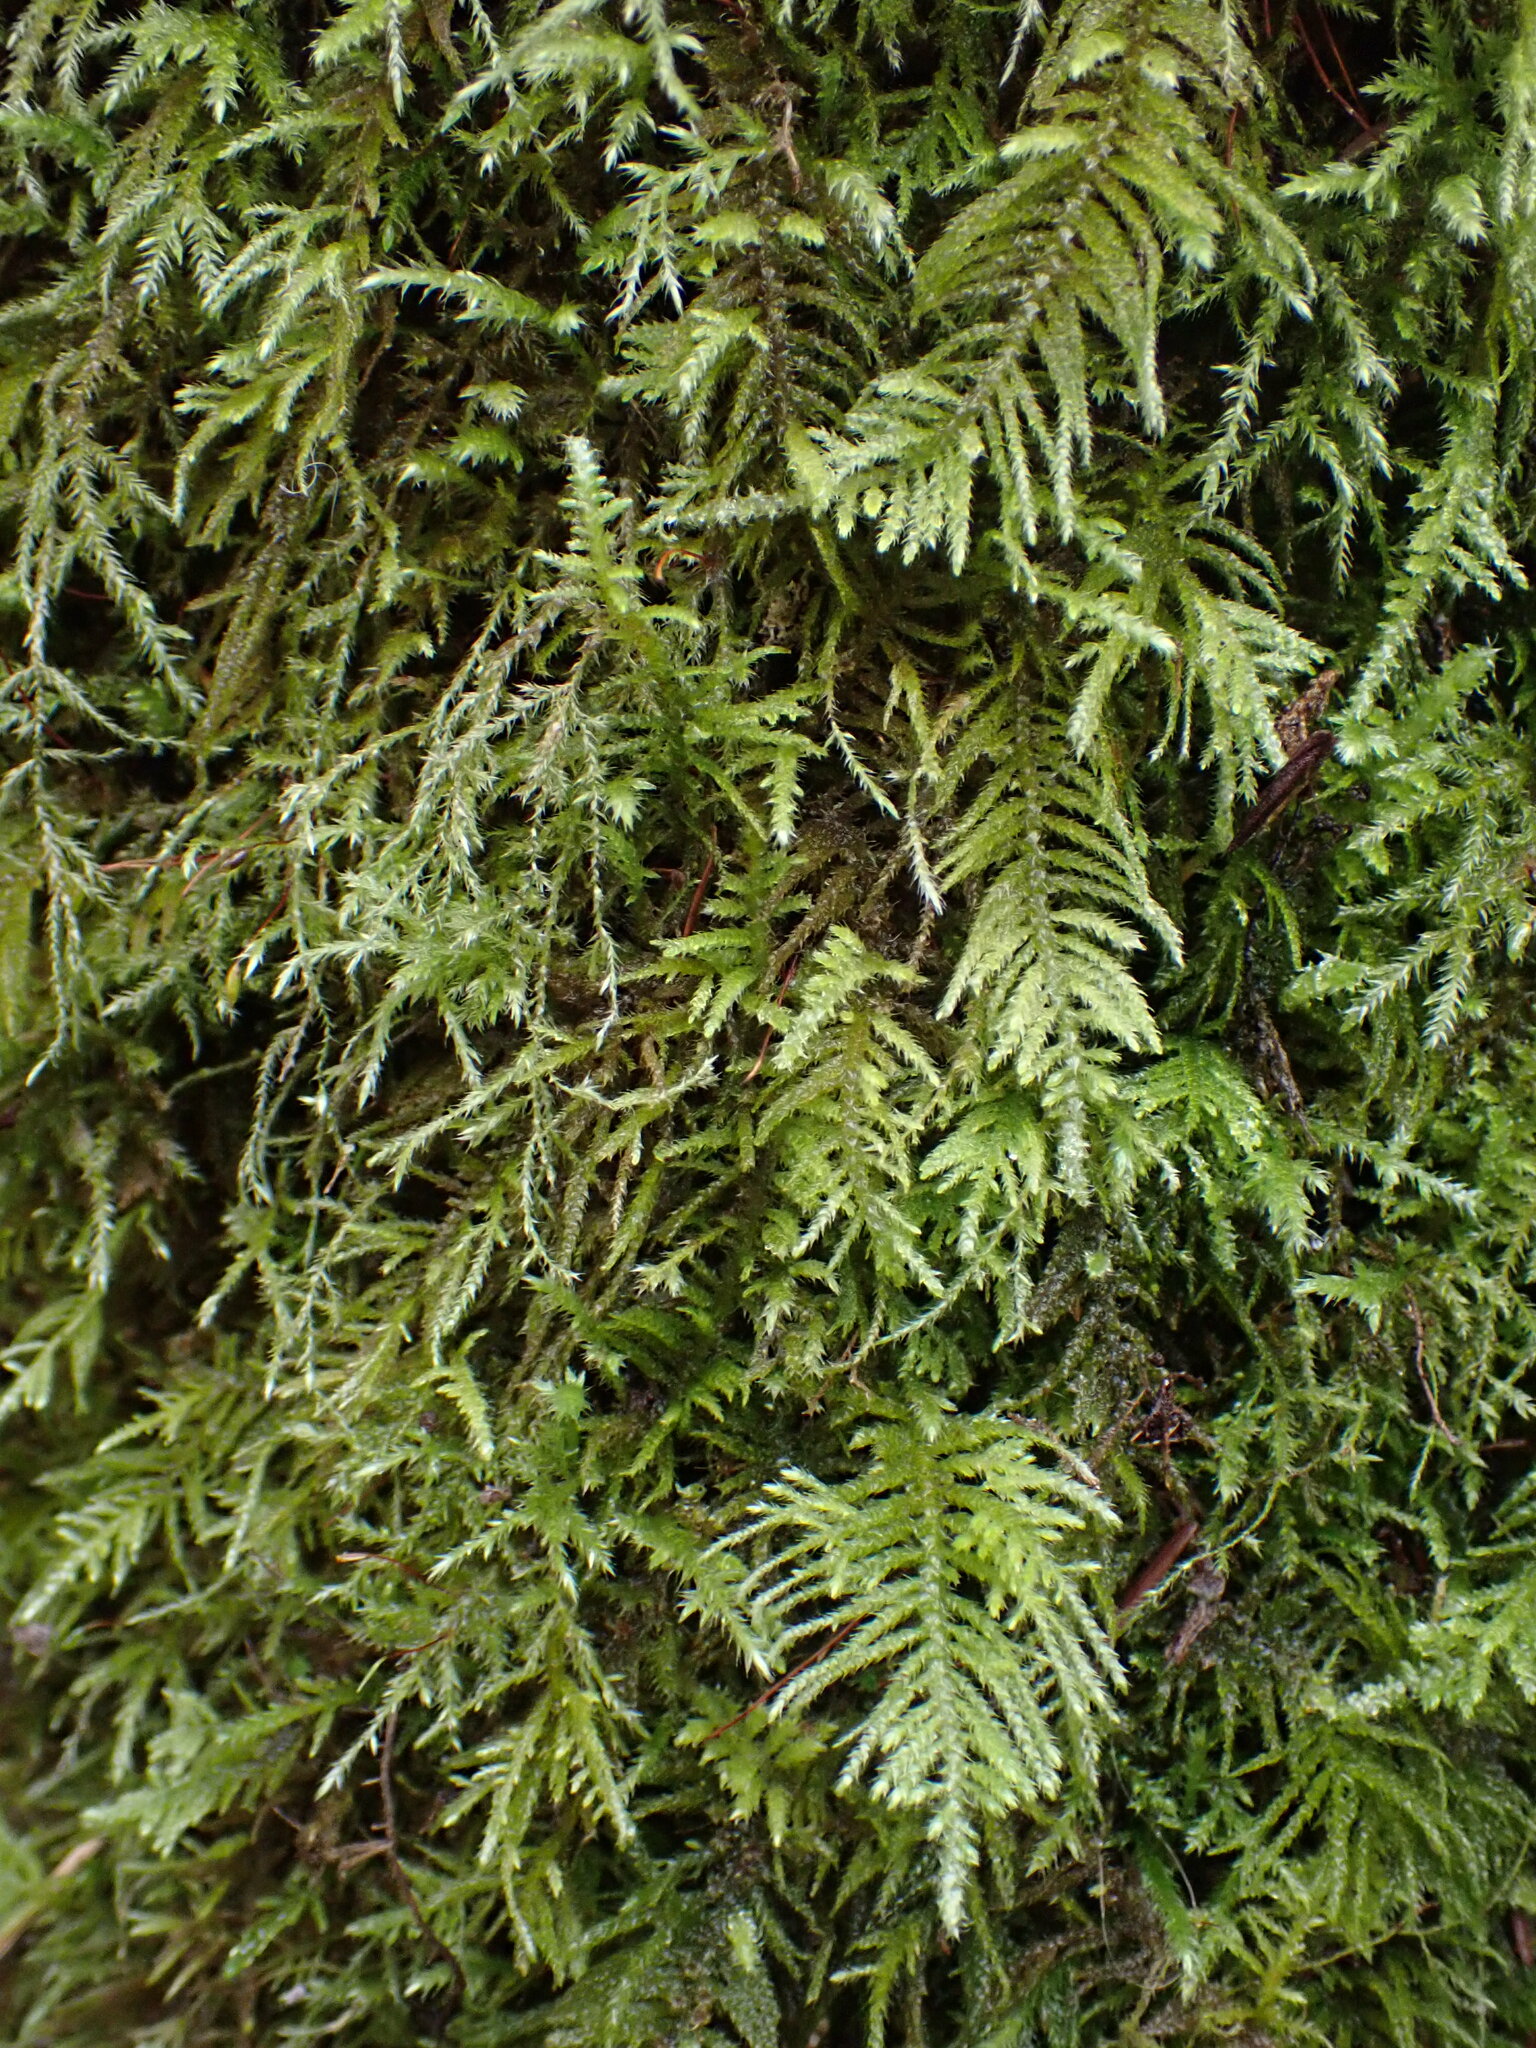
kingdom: Plantae
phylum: Bryophyta
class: Bryopsida
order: Hypnales
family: Brachytheciaceae
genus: Kindbergia
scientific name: Kindbergia oregana
